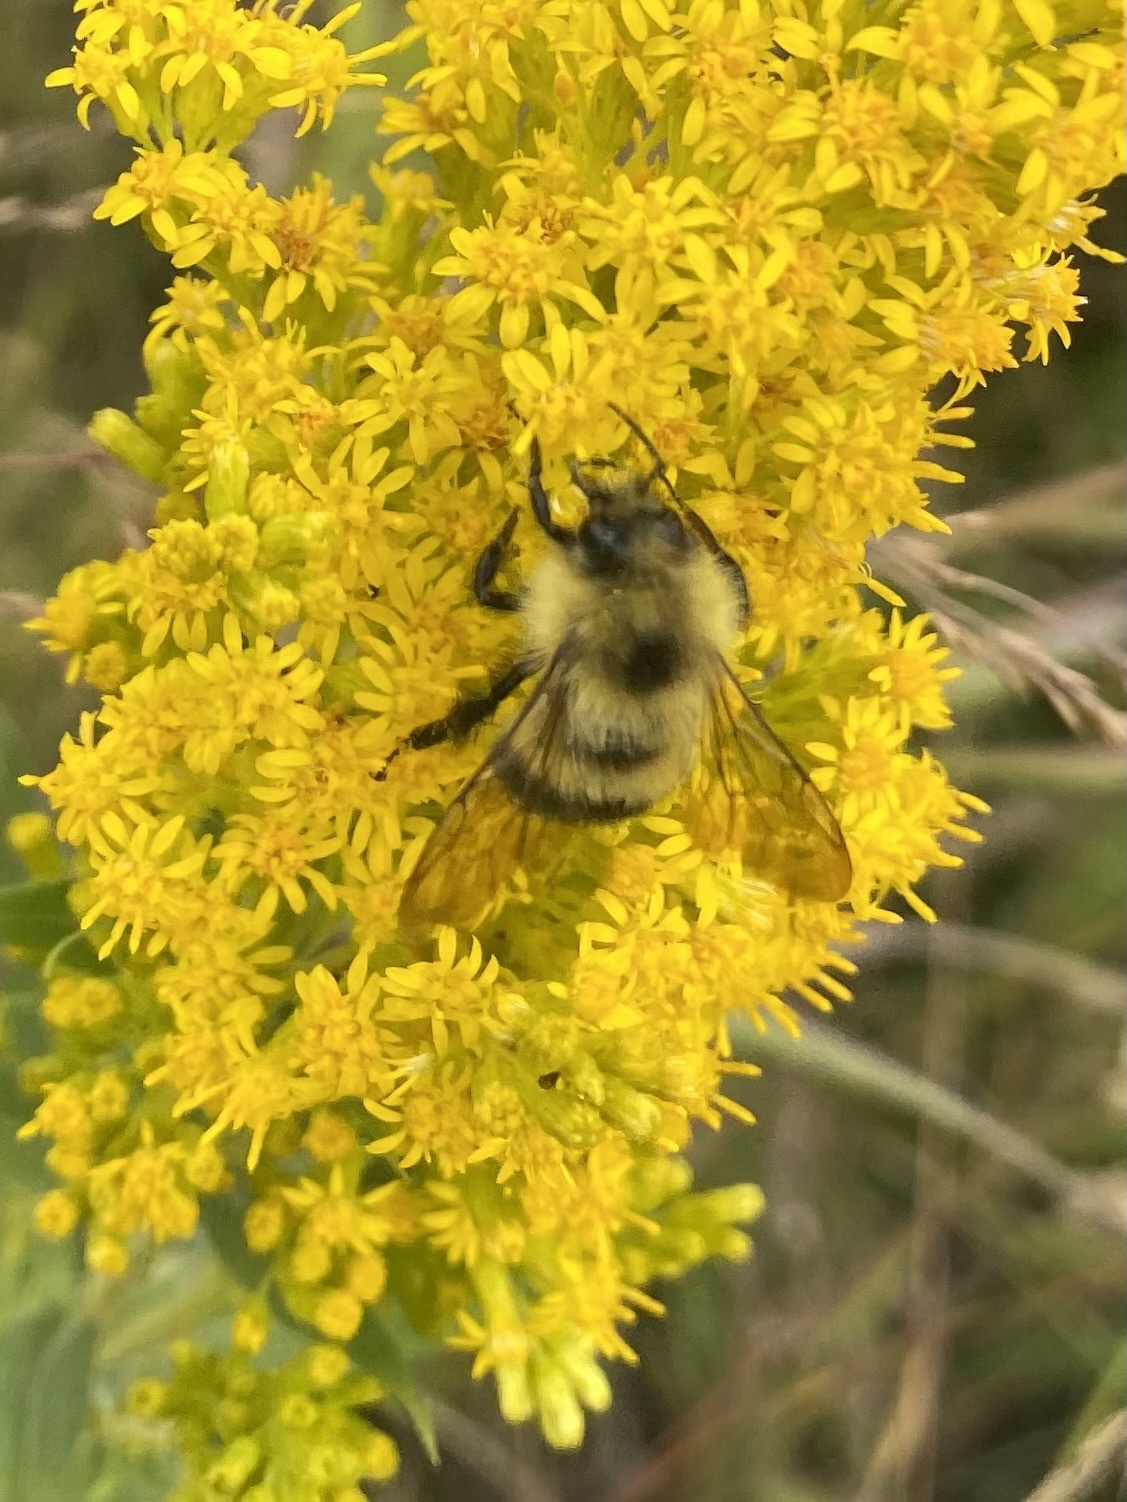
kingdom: Animalia
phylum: Arthropoda
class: Insecta
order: Hymenoptera
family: Apidae
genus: Bombus
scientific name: Bombus vagans
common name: Half-black bumble bee
